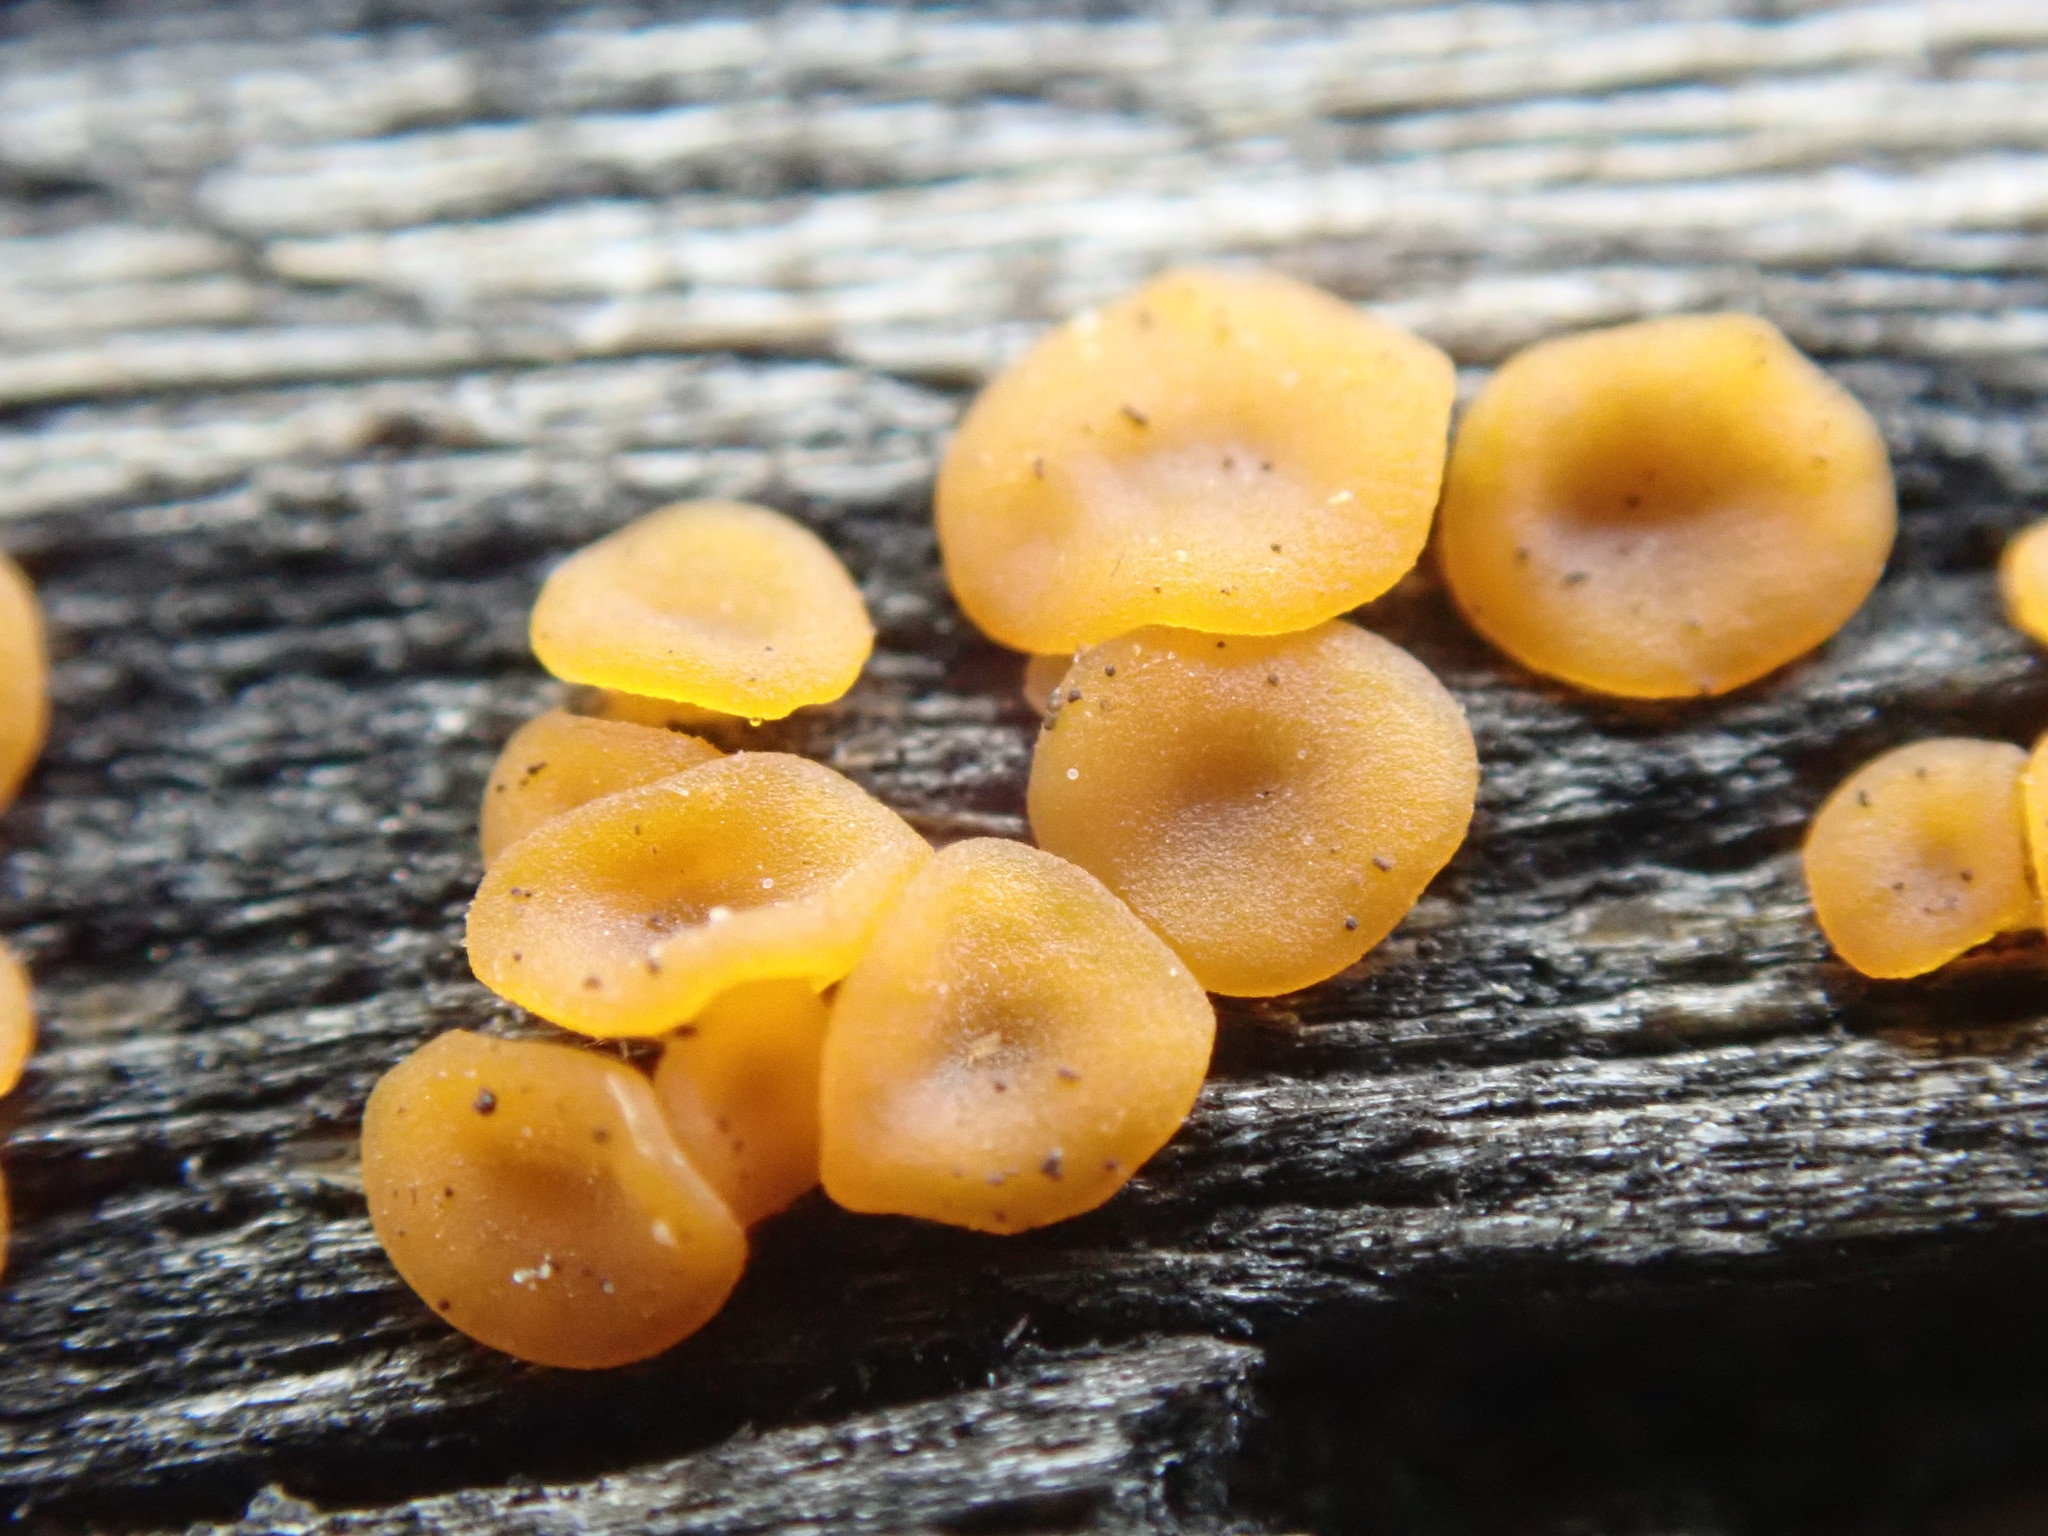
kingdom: Fungi
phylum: Basidiomycota
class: Dacrymycetes
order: Dacrymycetales
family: Dacrymycetaceae
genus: Dacrymyces
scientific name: Dacrymyces stillatus
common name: Common jelly spot
